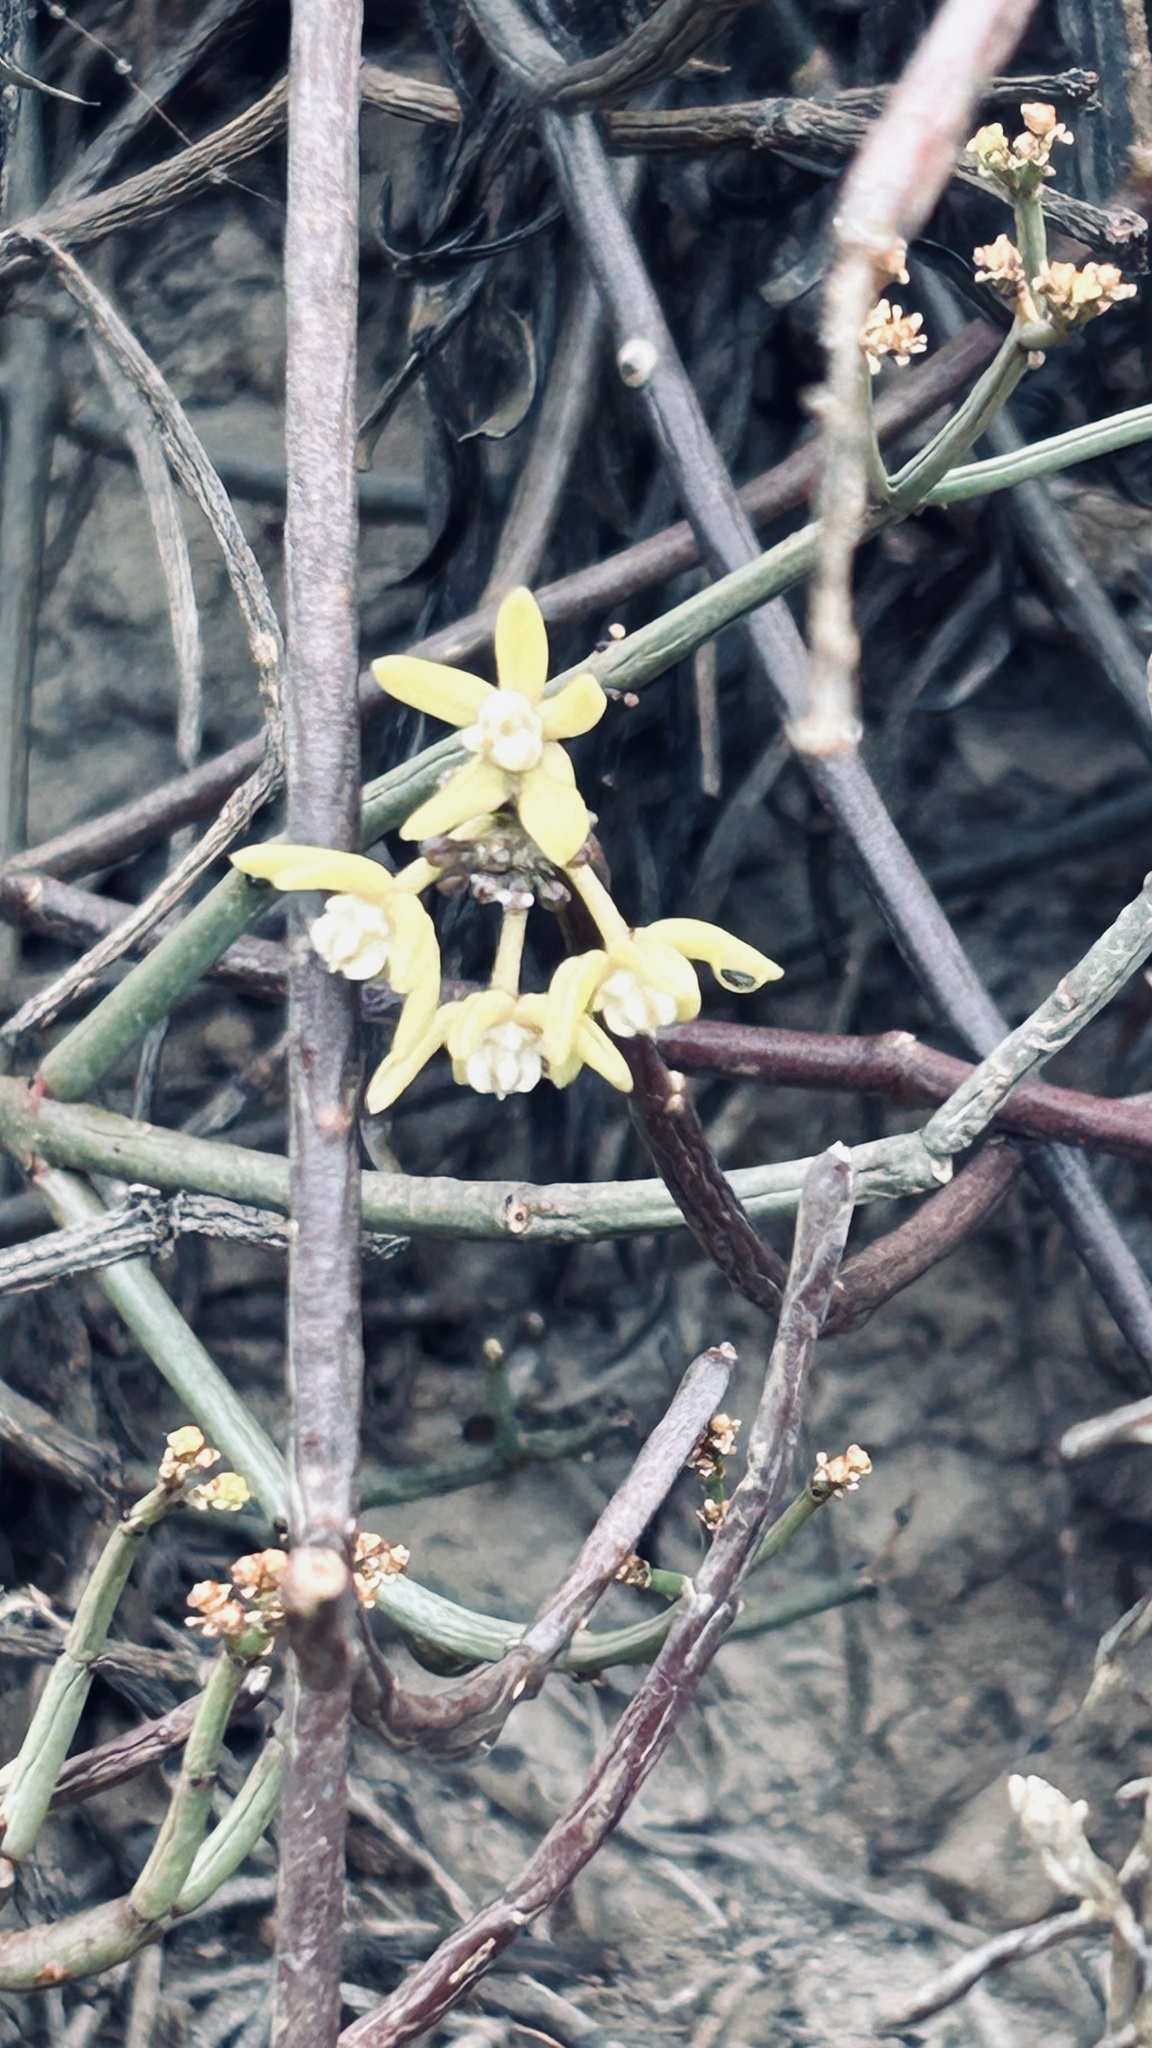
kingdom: Plantae
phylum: Tracheophyta
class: Magnoliopsida
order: Gentianales
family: Apocynaceae
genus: Cynanchum
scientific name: Cynanchum viminale
